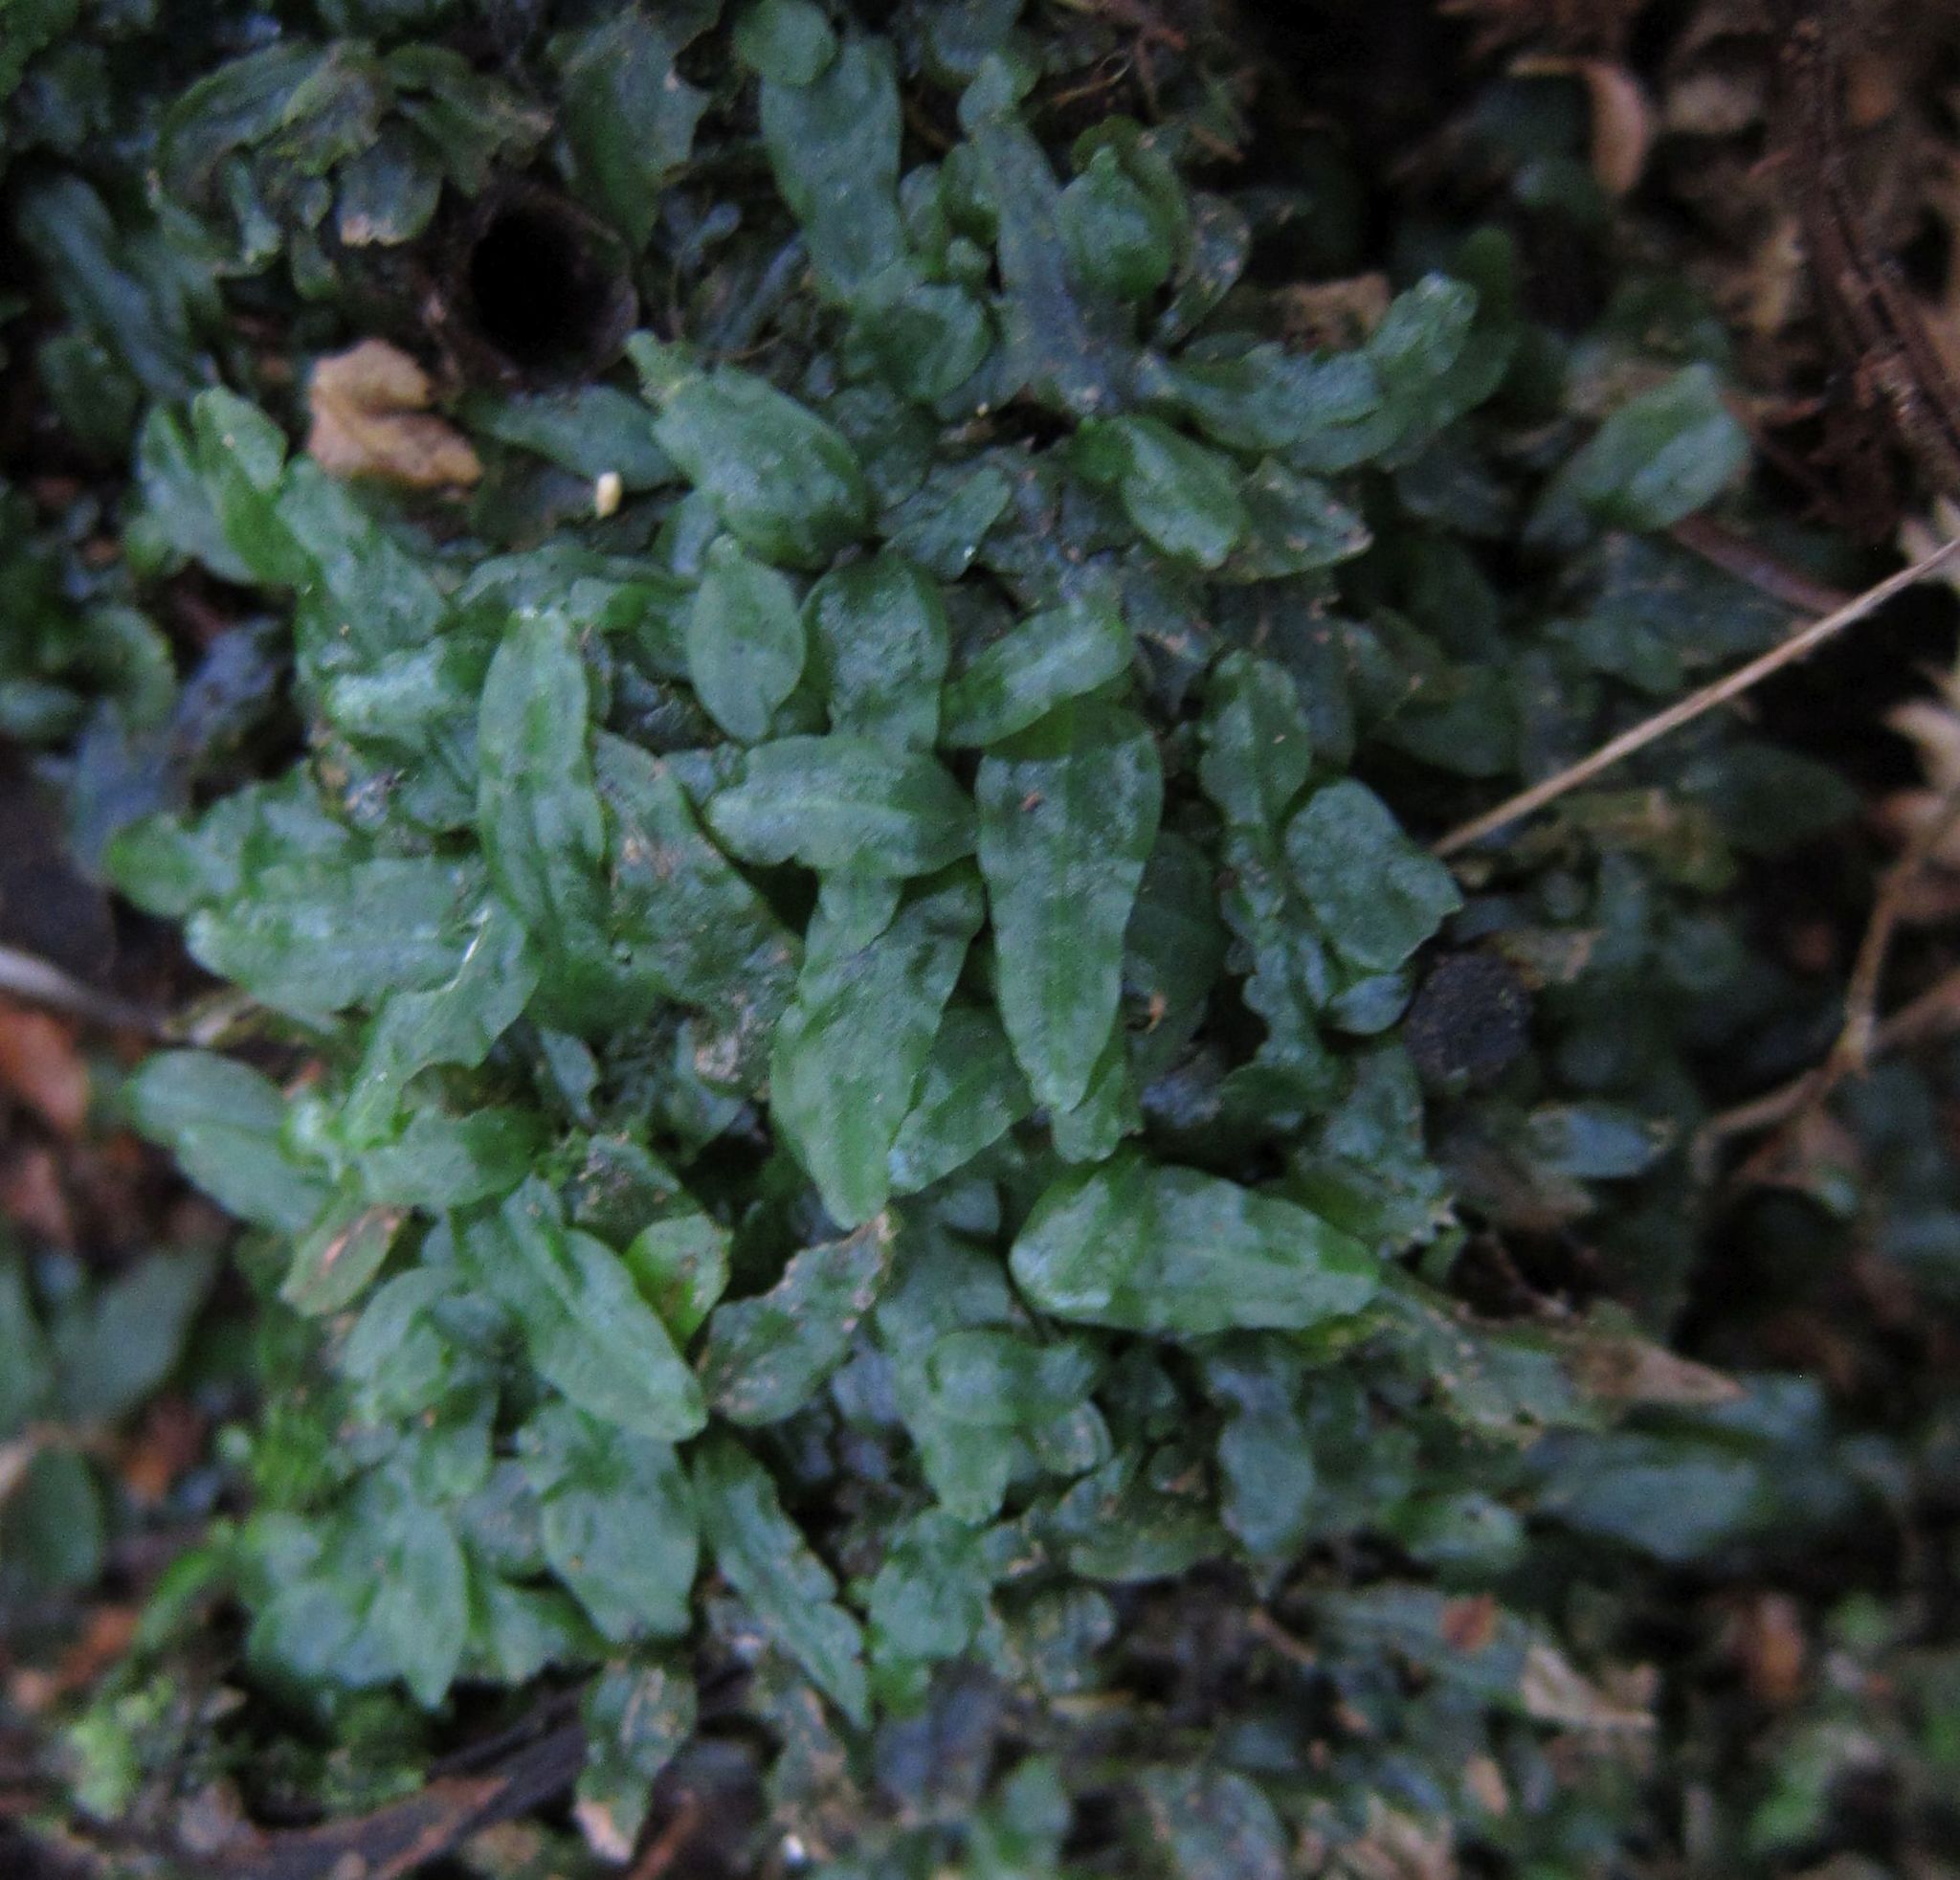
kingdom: Plantae
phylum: Marchantiophyta
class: Jungermanniopsida
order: Pallaviciniales
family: Pallaviciniaceae
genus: Podomitrium
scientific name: Podomitrium phyllanthus
